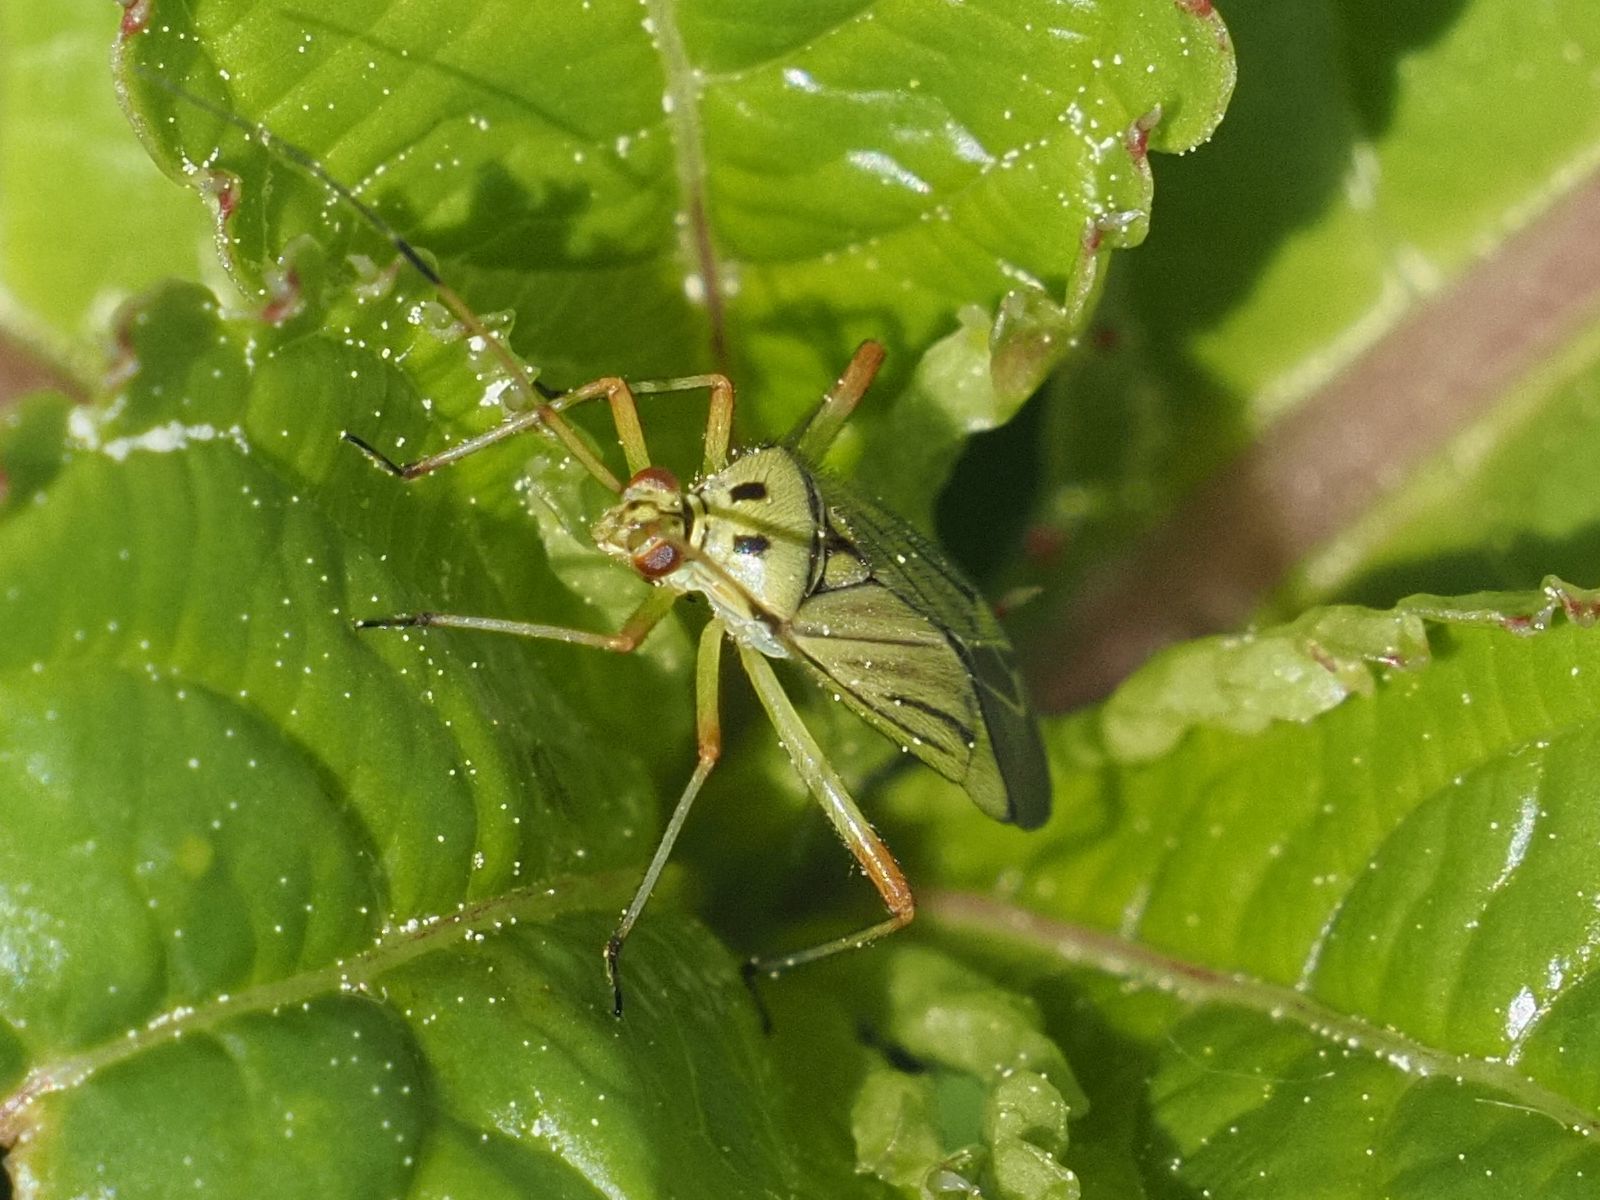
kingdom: Animalia
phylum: Arthropoda
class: Insecta
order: Hemiptera
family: Miridae
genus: Mermitelocerus
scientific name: Mermitelocerus schmidtii
